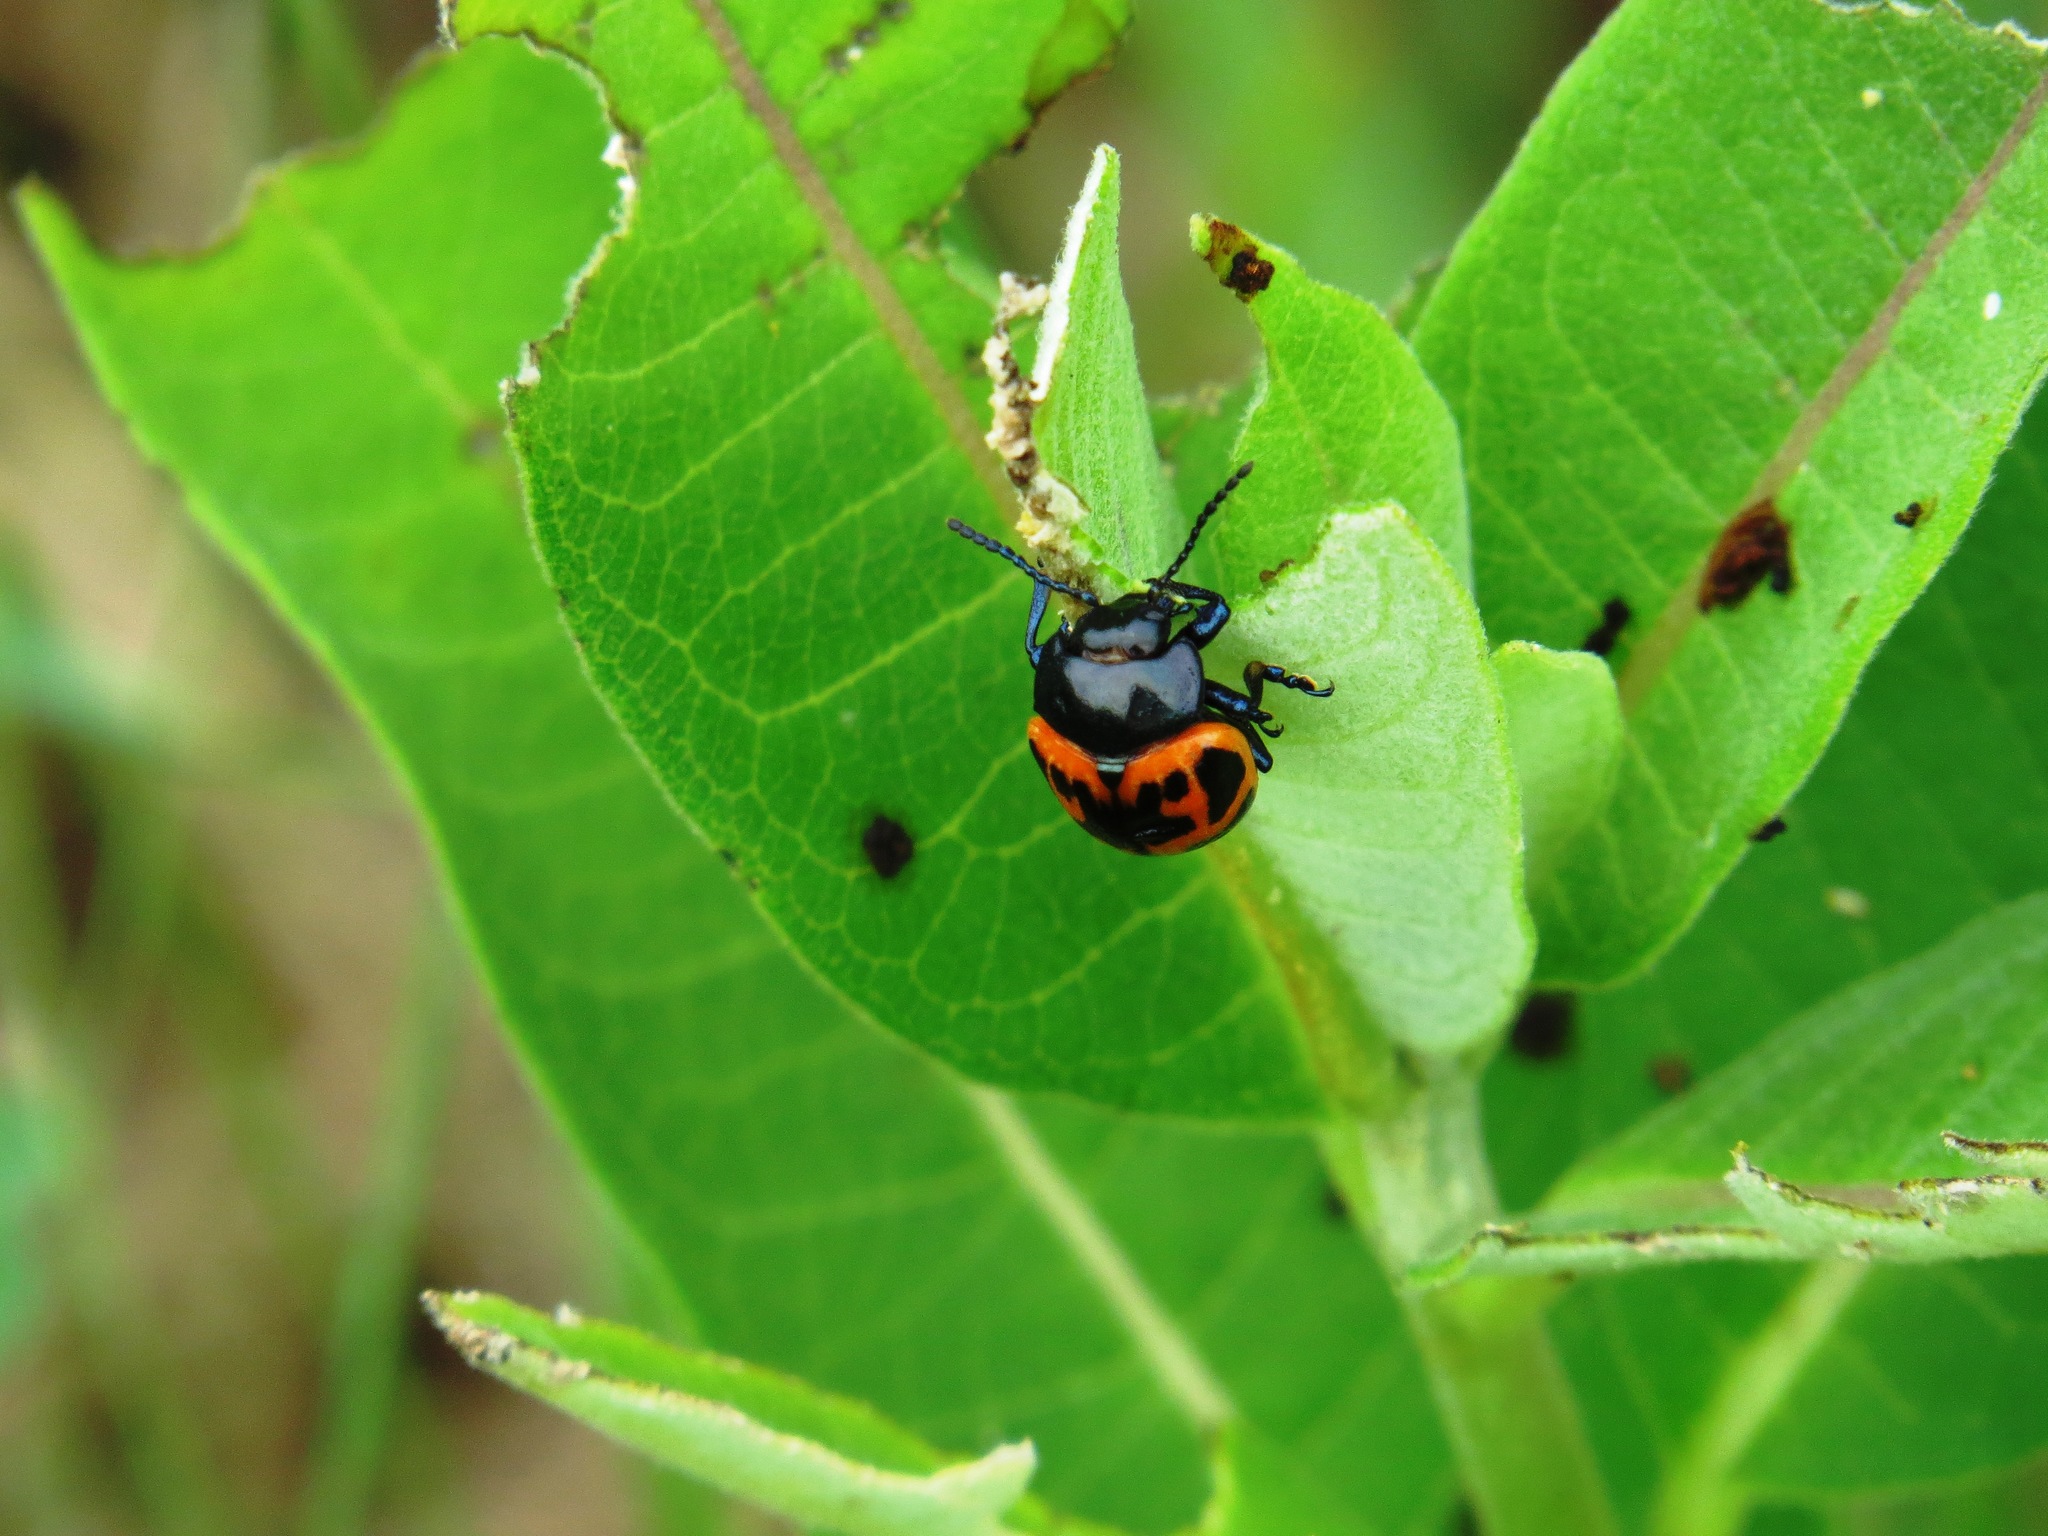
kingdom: Animalia
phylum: Arthropoda
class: Insecta
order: Coleoptera
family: Chrysomelidae
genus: Labidomera
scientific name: Labidomera clivicollis
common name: Swamp milkweed leaf beetle
